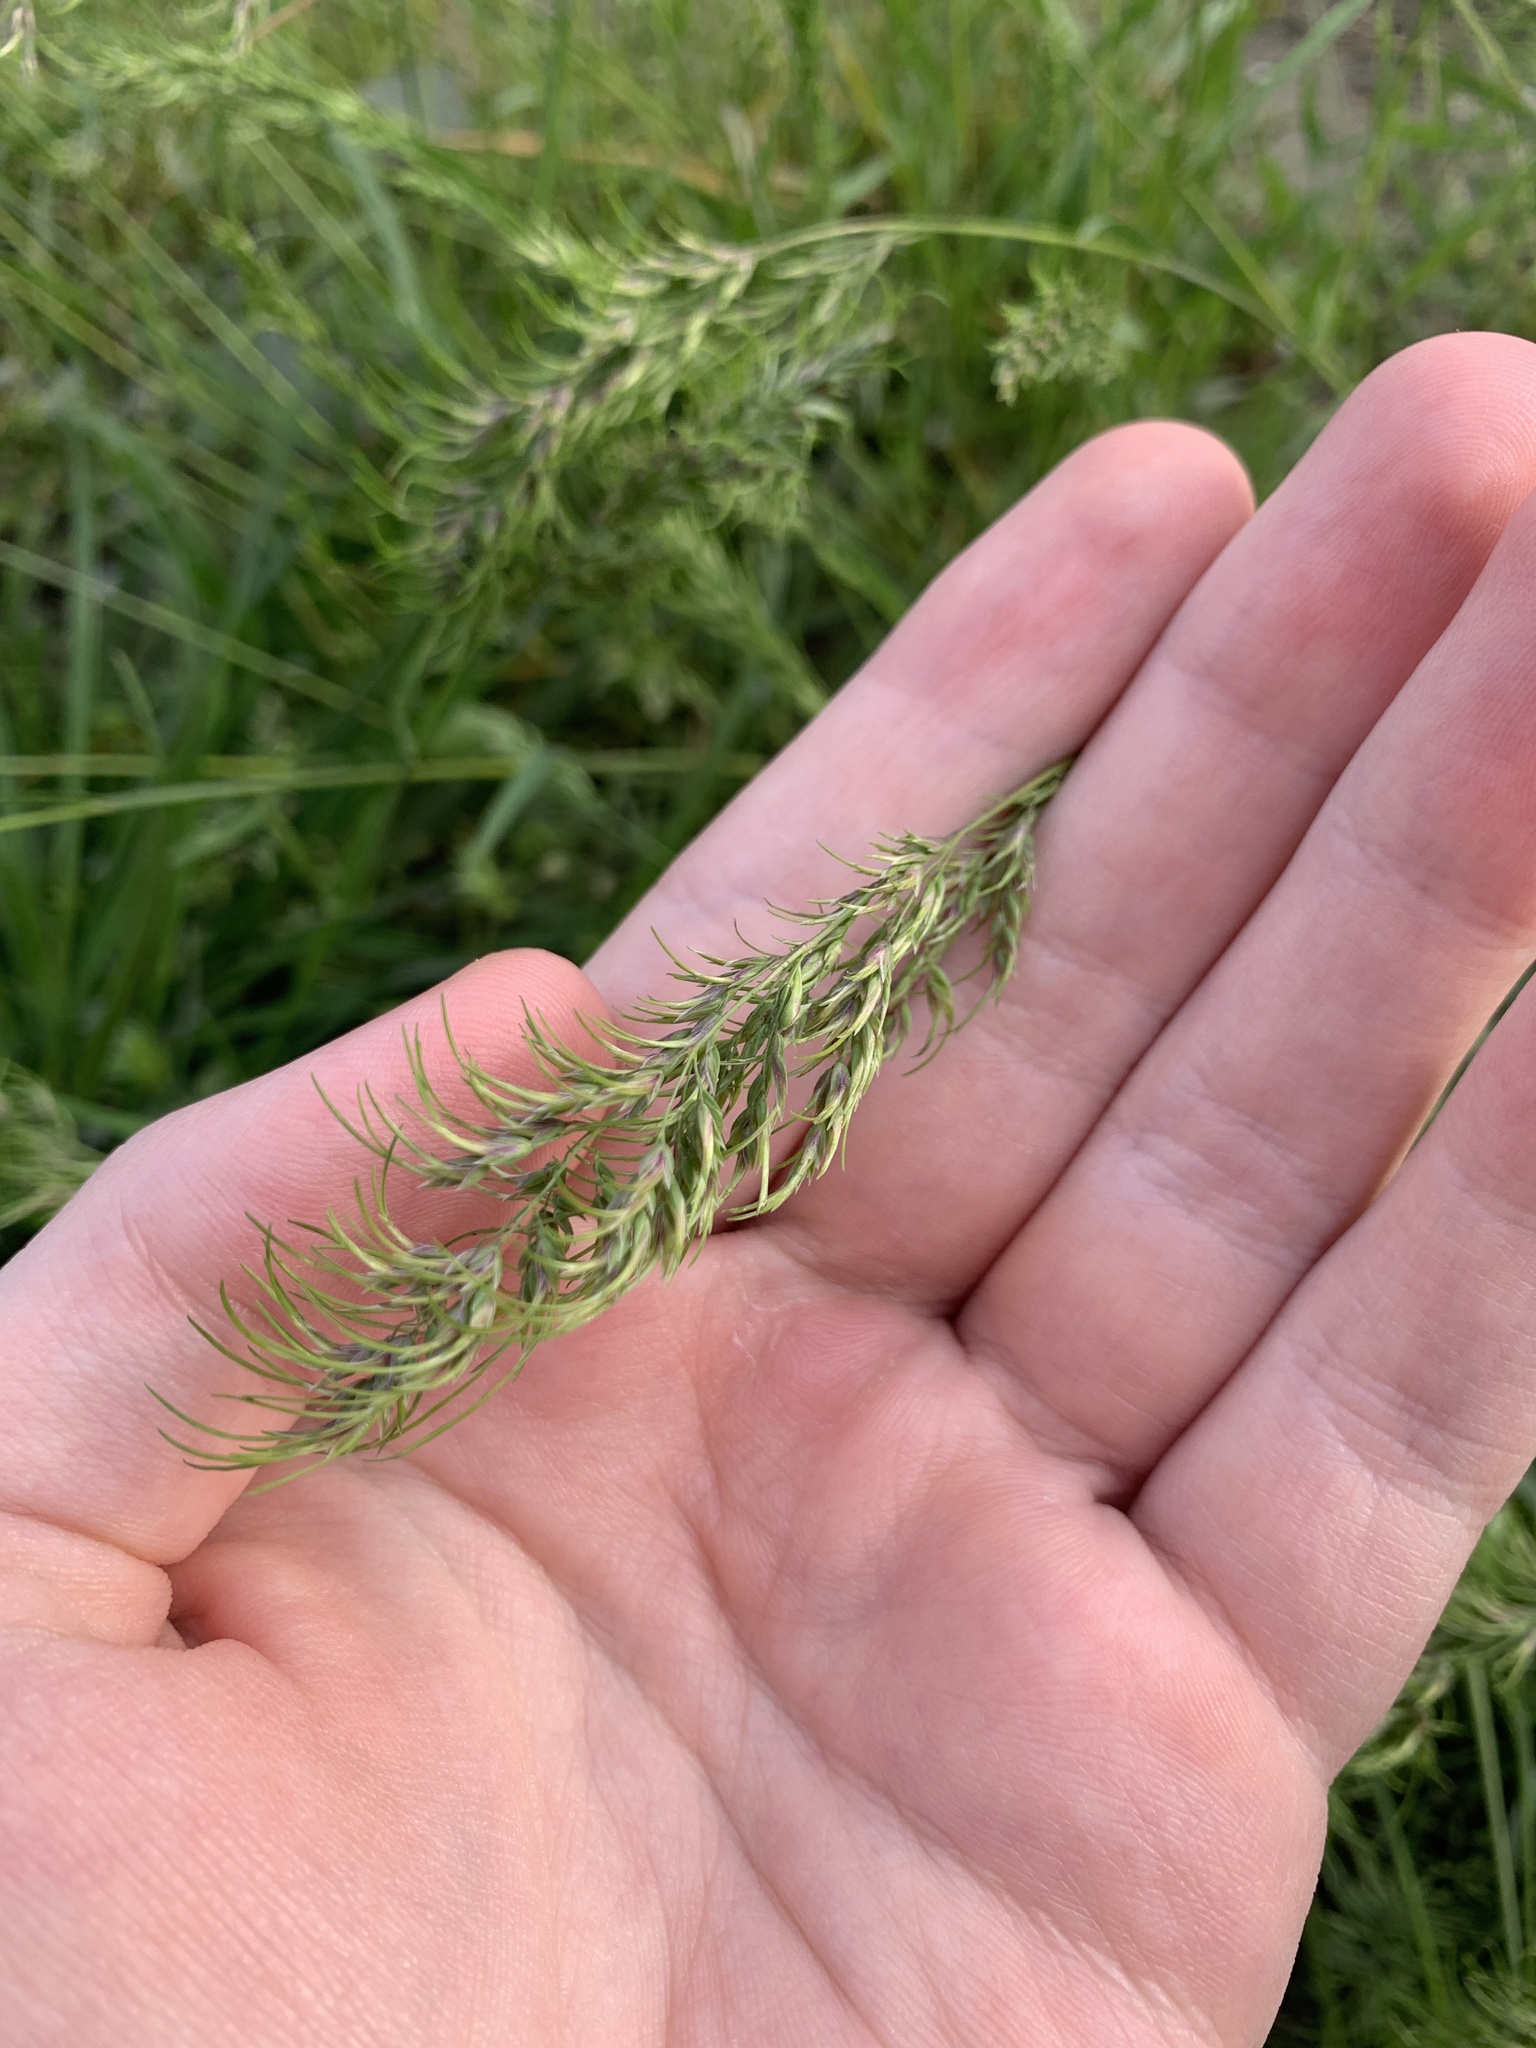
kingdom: Plantae
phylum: Tracheophyta
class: Liliopsida
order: Poales
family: Poaceae
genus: Poa
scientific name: Poa bulbosa
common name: Bulbous bluegrass
